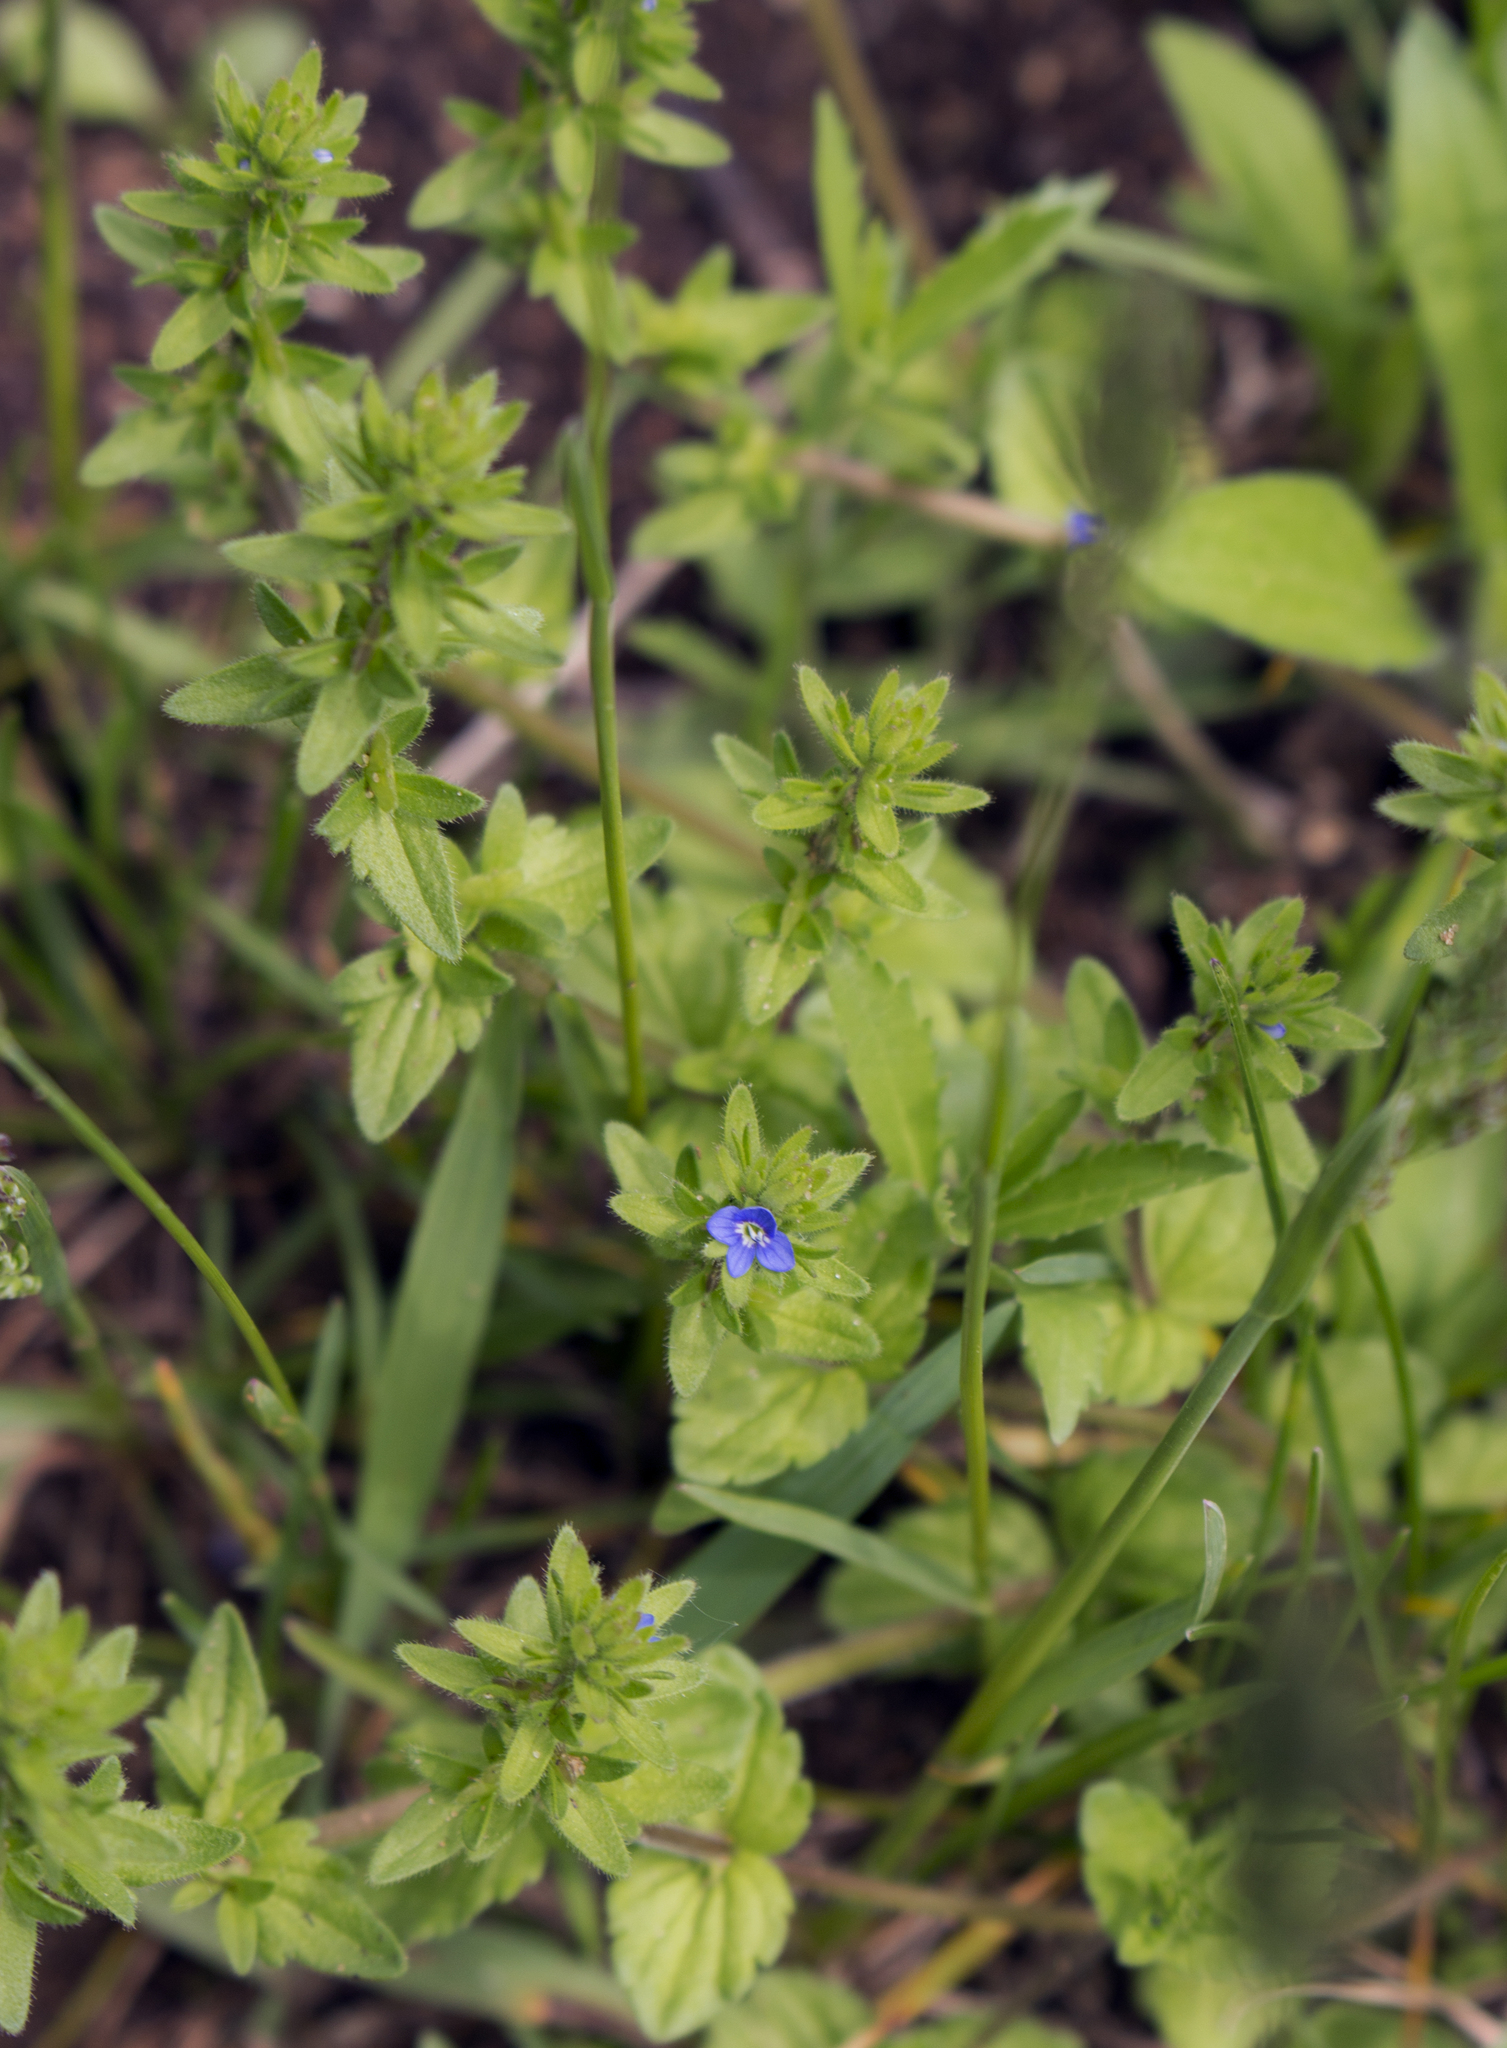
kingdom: Plantae
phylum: Tracheophyta
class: Magnoliopsida
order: Lamiales
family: Plantaginaceae
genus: Veronica
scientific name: Veronica arvensis
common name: Corn speedwell
